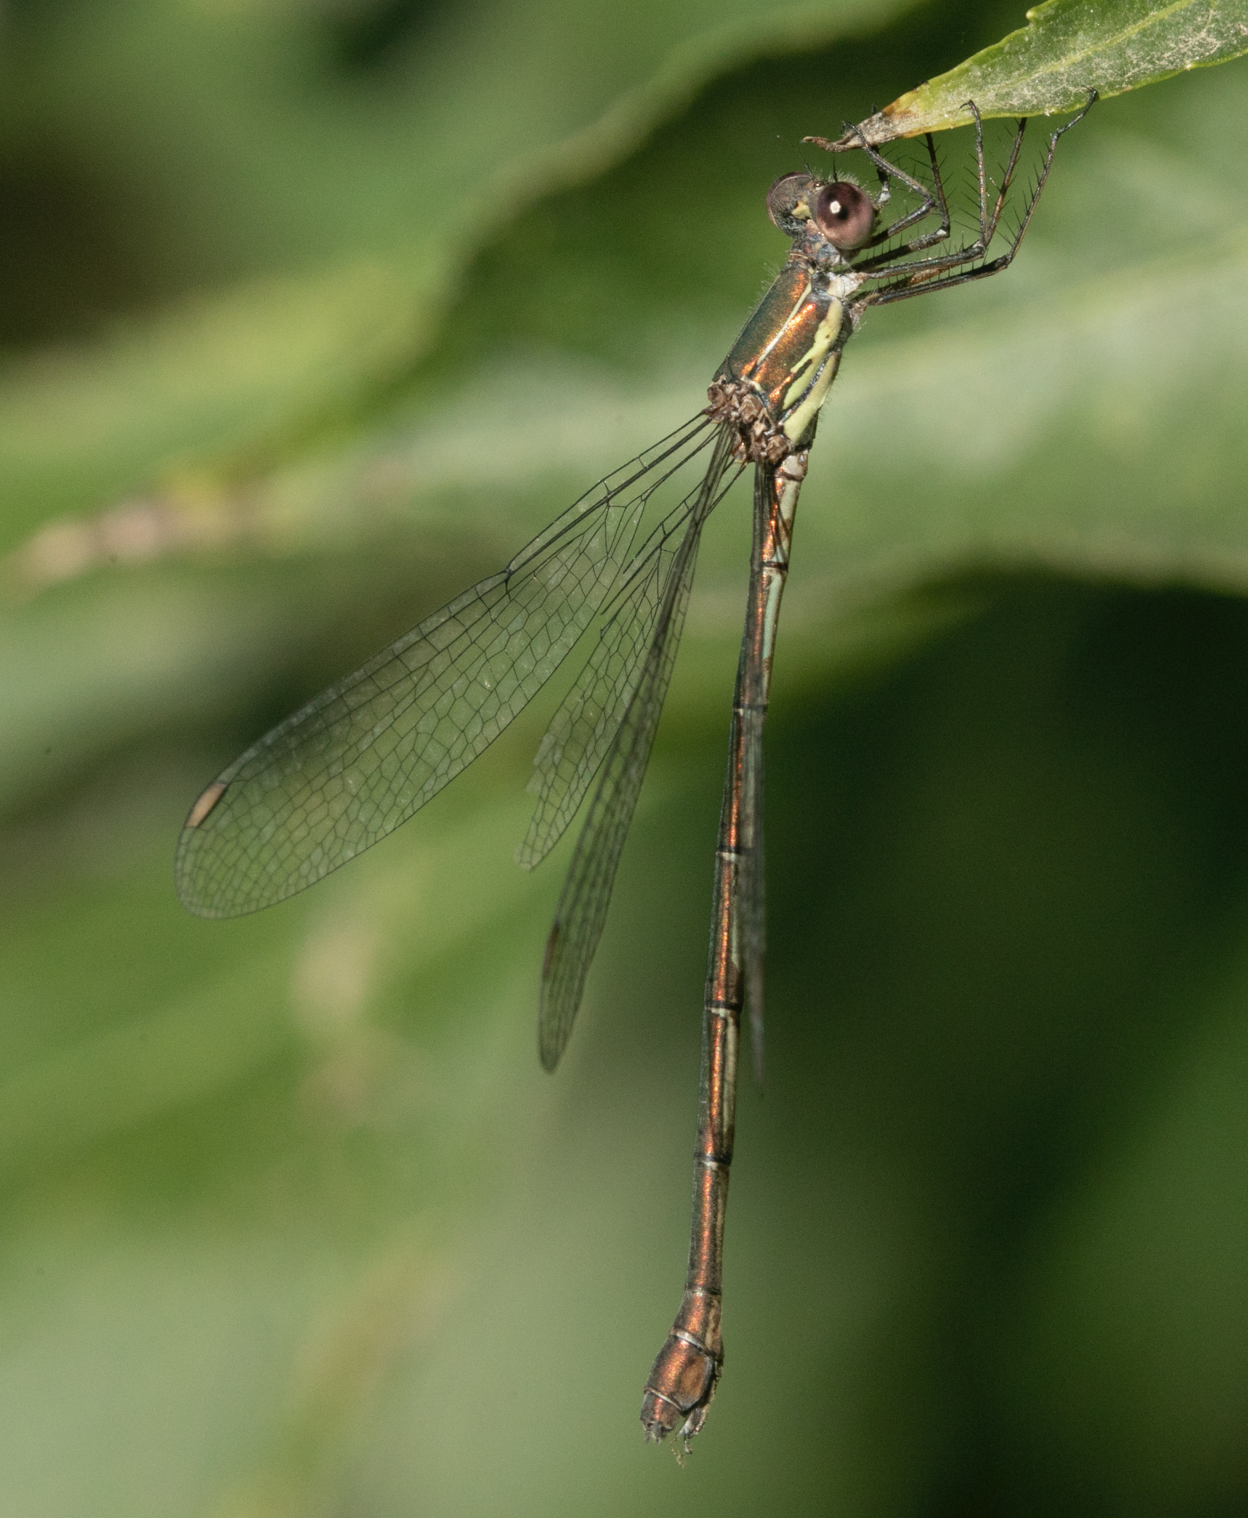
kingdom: Animalia
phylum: Arthropoda
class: Insecta
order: Odonata
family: Lestidae
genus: Chalcolestes
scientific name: Chalcolestes viridis
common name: Green emerald damselfly
